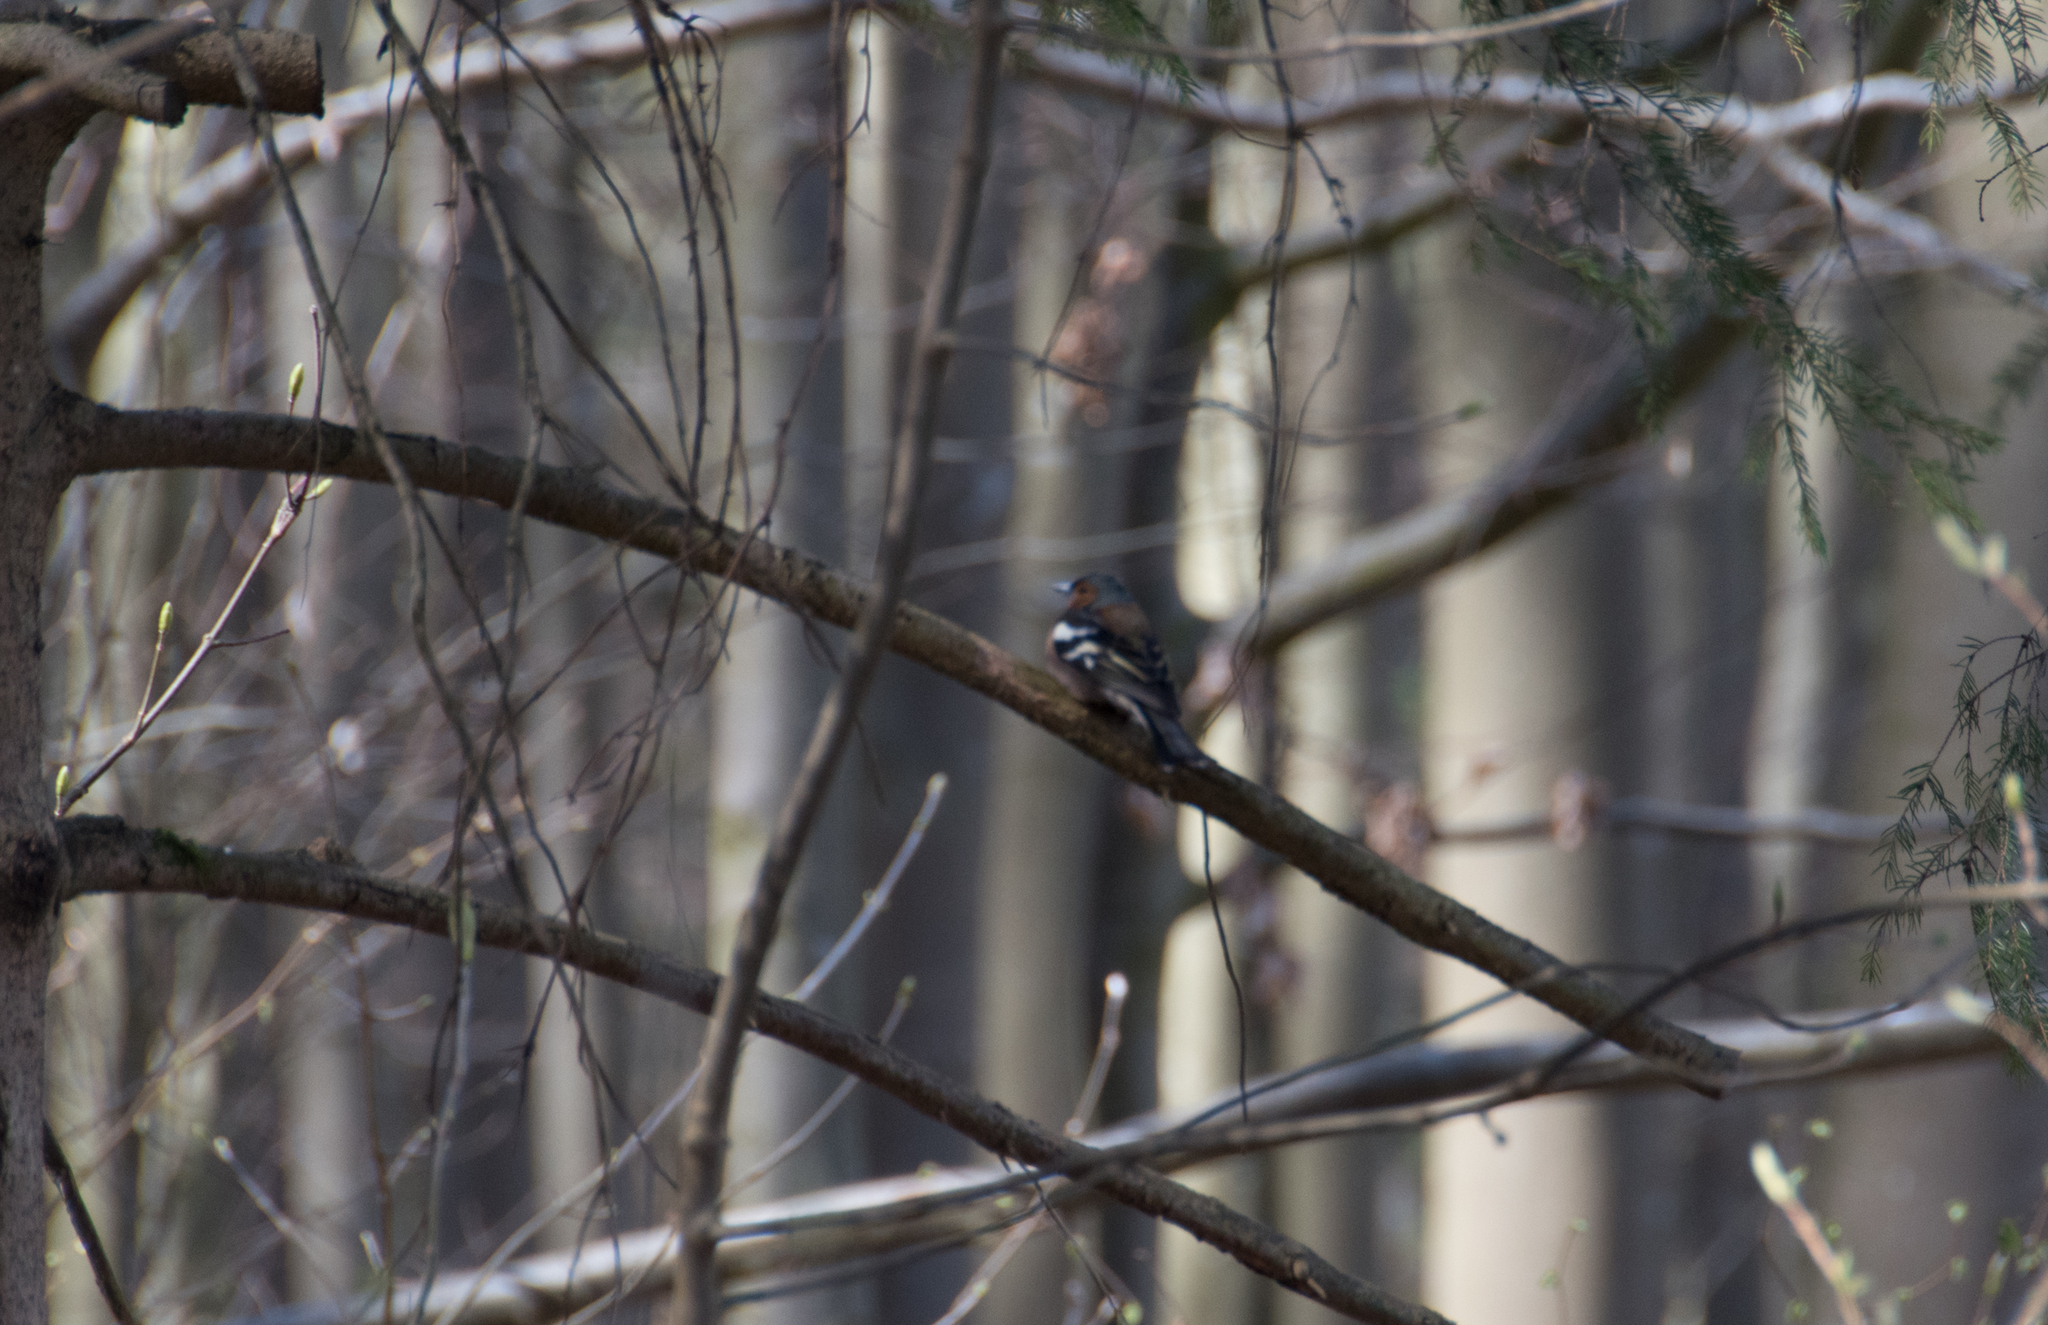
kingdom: Animalia
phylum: Chordata
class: Aves
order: Passeriformes
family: Fringillidae
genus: Fringilla
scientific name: Fringilla coelebs
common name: Common chaffinch
